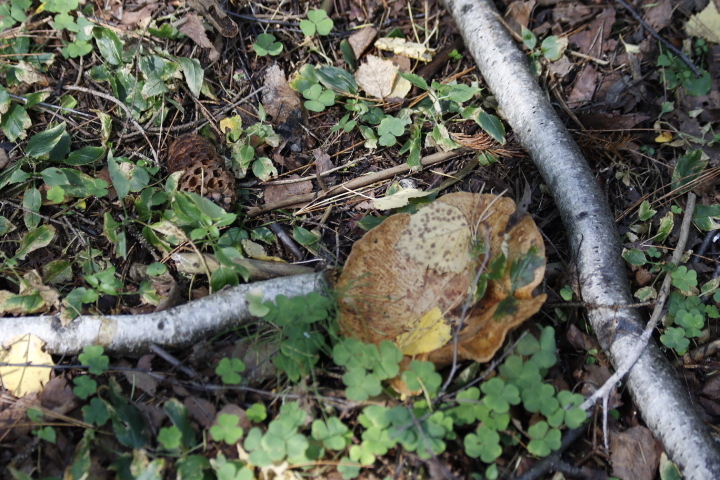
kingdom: Fungi
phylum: Basidiomycota
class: Agaricomycetes
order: Russulales
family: Russulaceae
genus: Lactarius
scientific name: Lactarius turpis
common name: Ugly milk-cap
